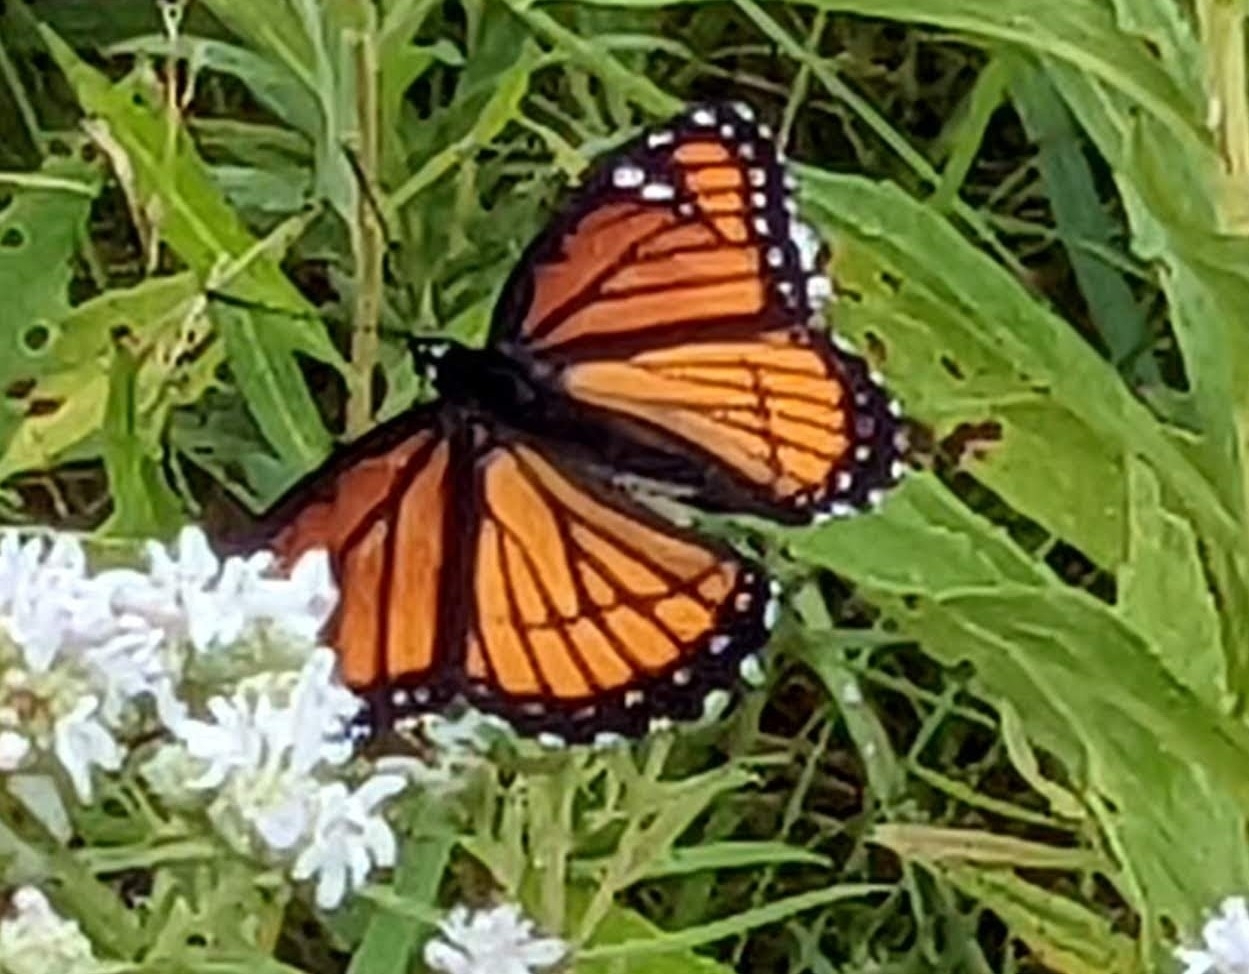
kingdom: Animalia
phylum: Arthropoda
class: Insecta
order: Lepidoptera
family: Nymphalidae
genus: Limenitis
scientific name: Limenitis archippus
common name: Viceroy
